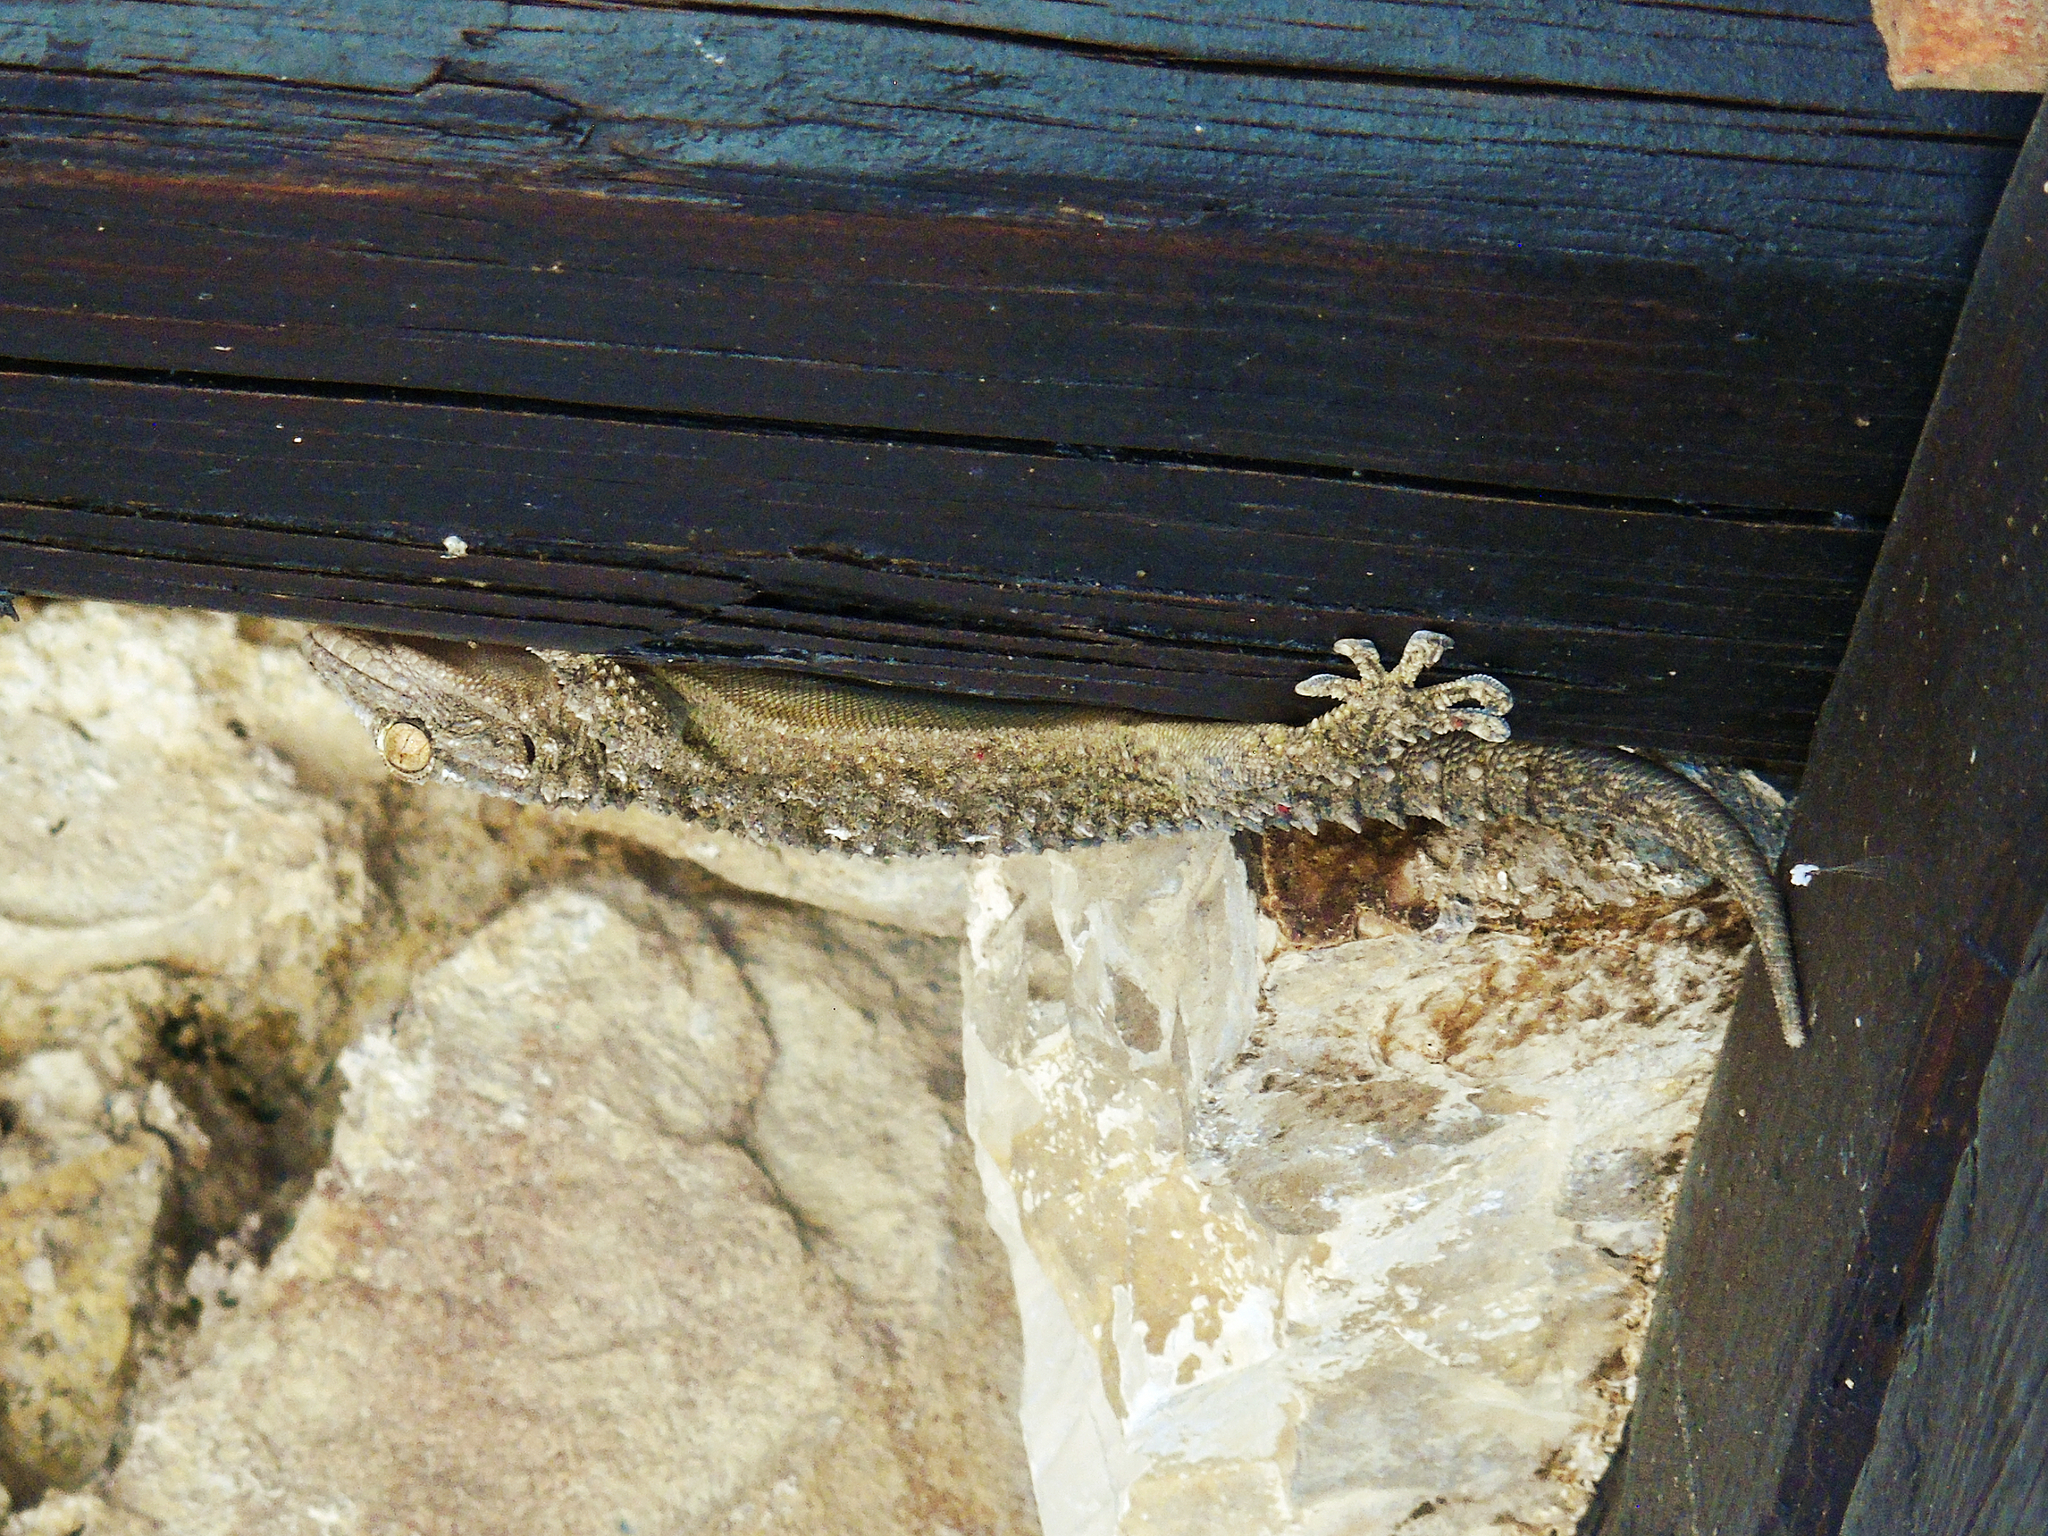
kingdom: Animalia
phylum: Chordata
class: Squamata
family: Phyllodactylidae
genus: Tarentola
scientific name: Tarentola mauritanica
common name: Moorish gecko
